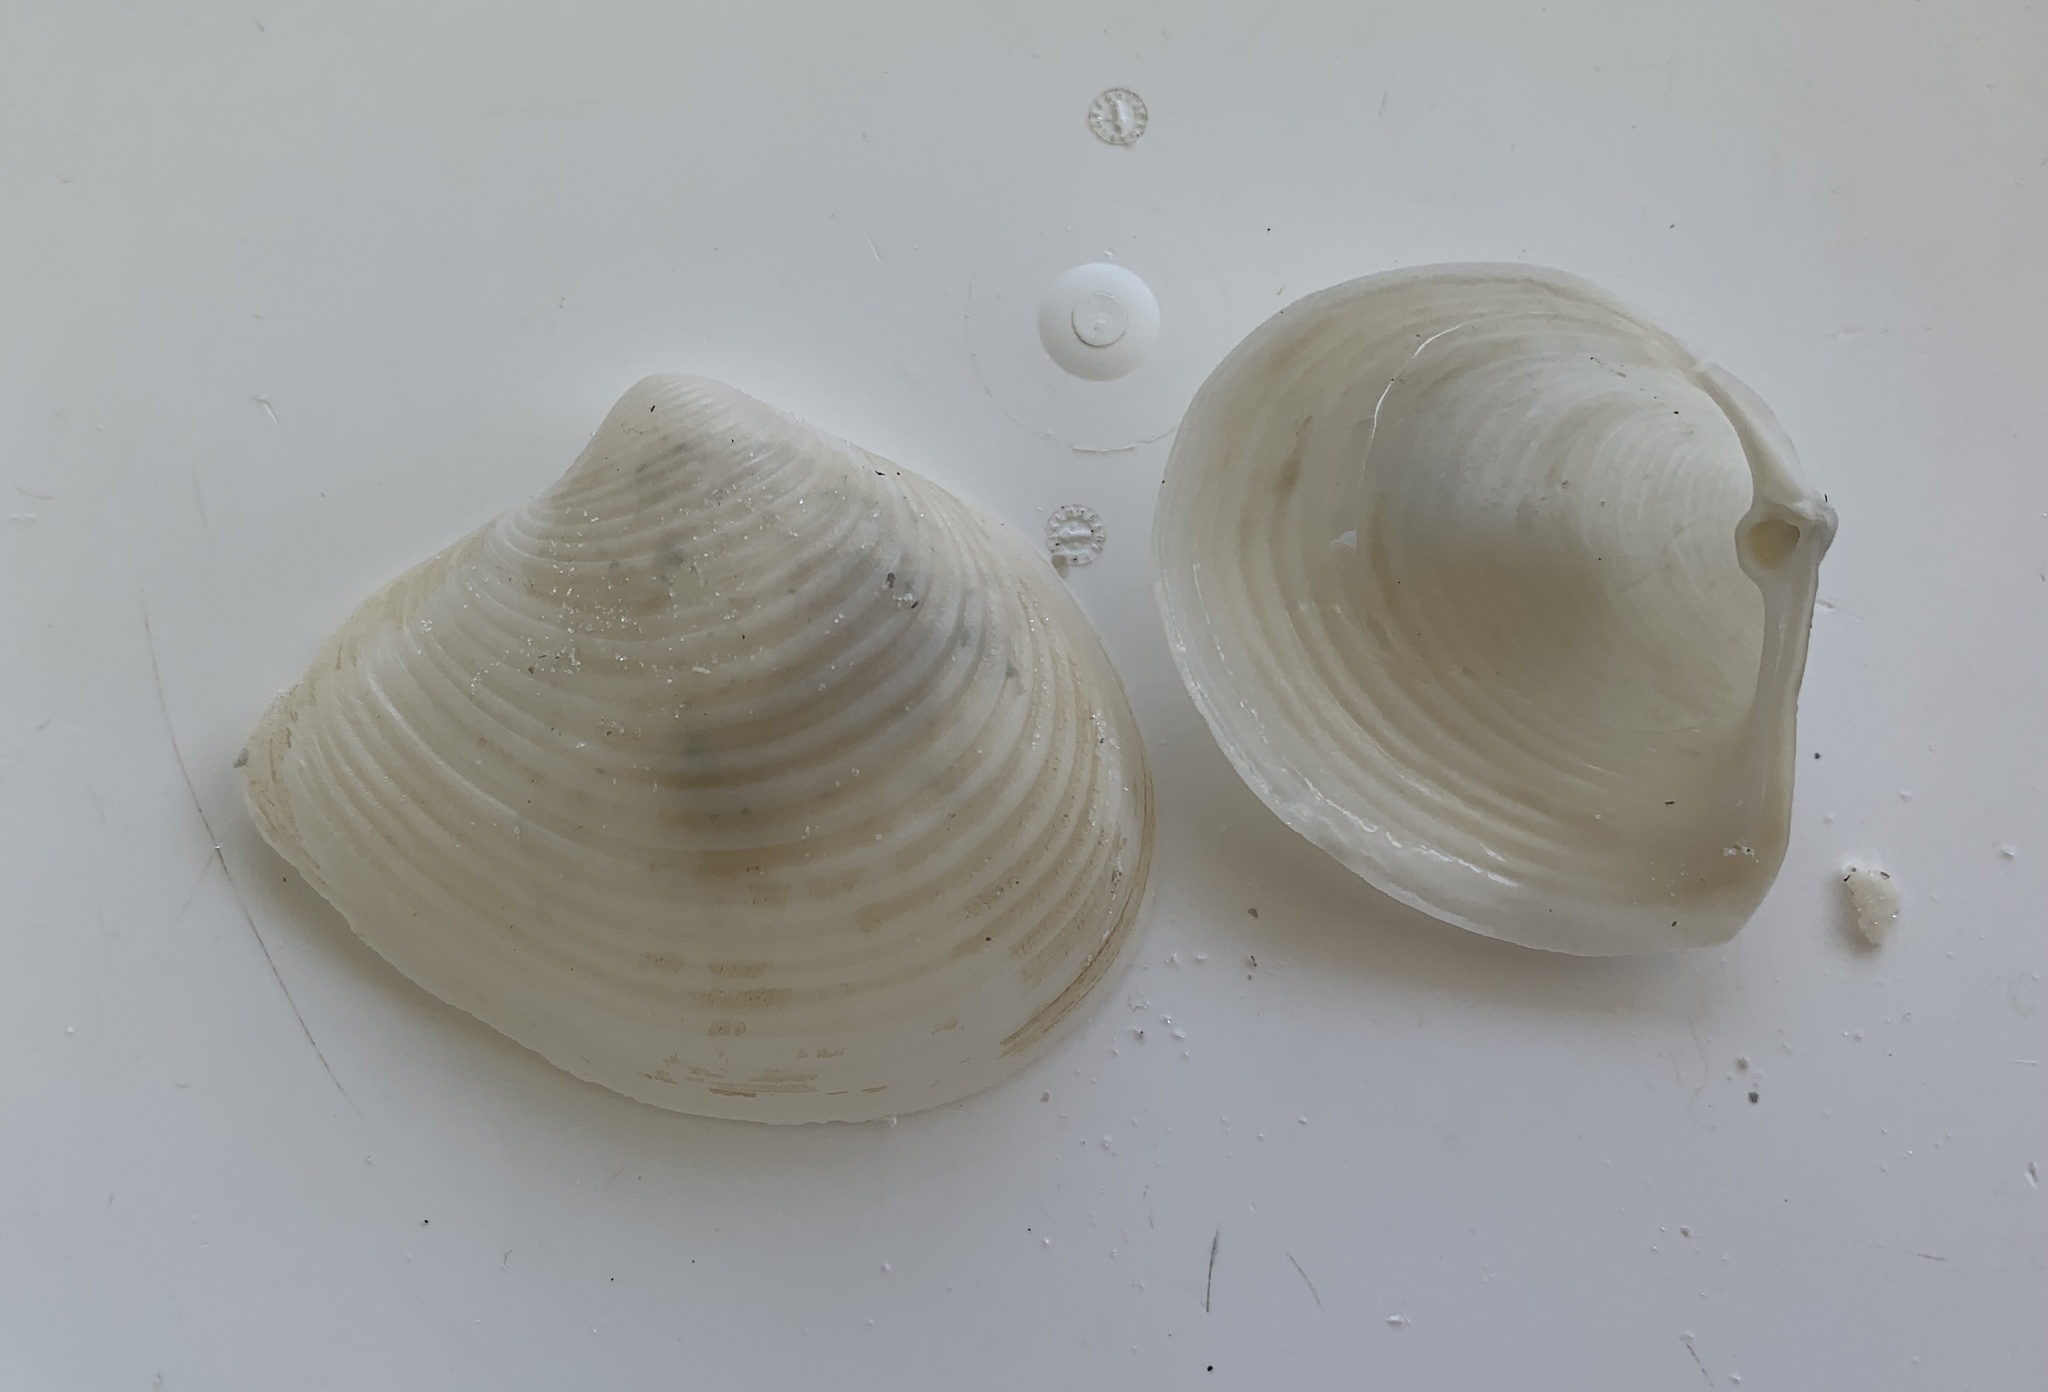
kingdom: Animalia
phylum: Mollusca
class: Bivalvia
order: Venerida
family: Anatinellidae
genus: Raeta
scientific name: Raeta plicatella
